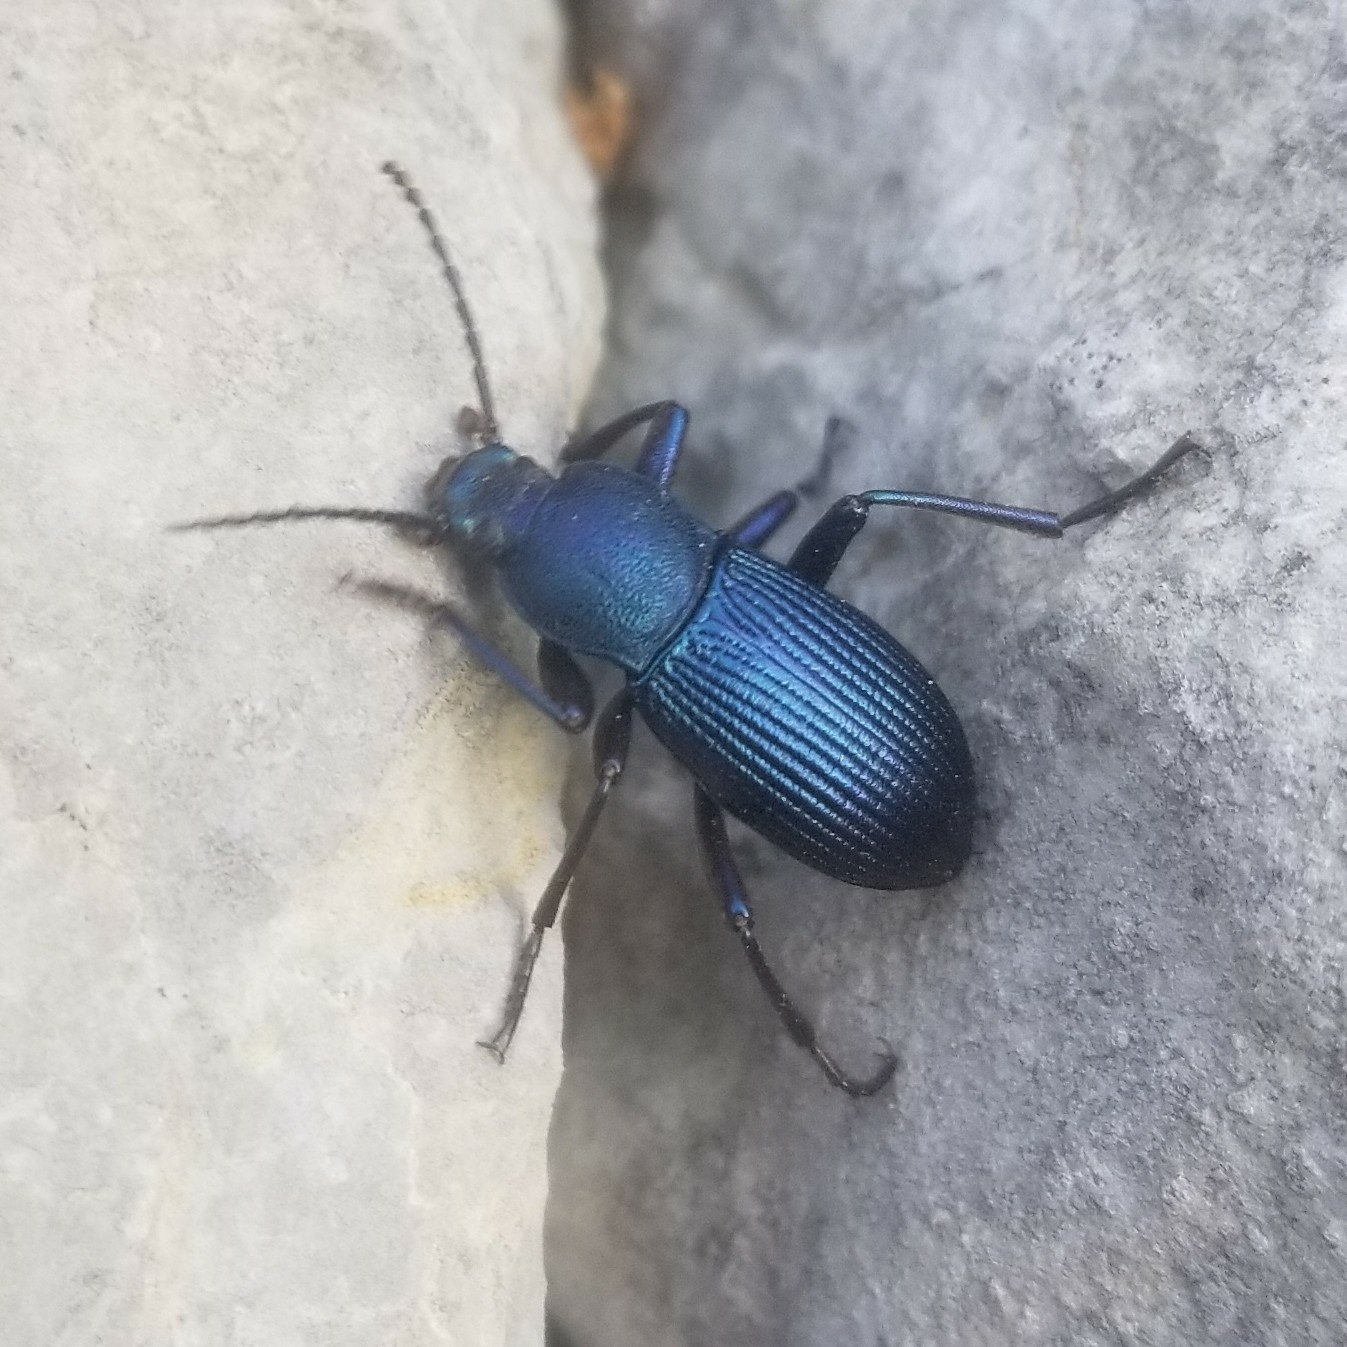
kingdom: Animalia
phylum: Arthropoda
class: Insecta
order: Coleoptera
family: Tenebrionidae
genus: Helops
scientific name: Helops rossii
